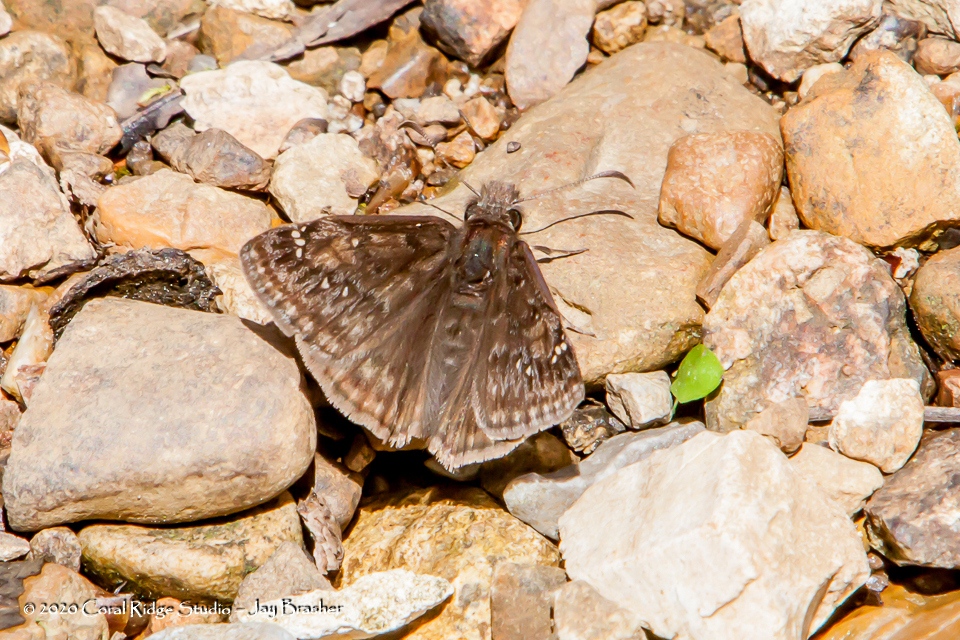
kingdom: Animalia
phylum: Arthropoda
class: Insecta
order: Lepidoptera
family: Hesperiidae
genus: Erynnis
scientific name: Erynnis juvenalis
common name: Juvenal's duskywing
